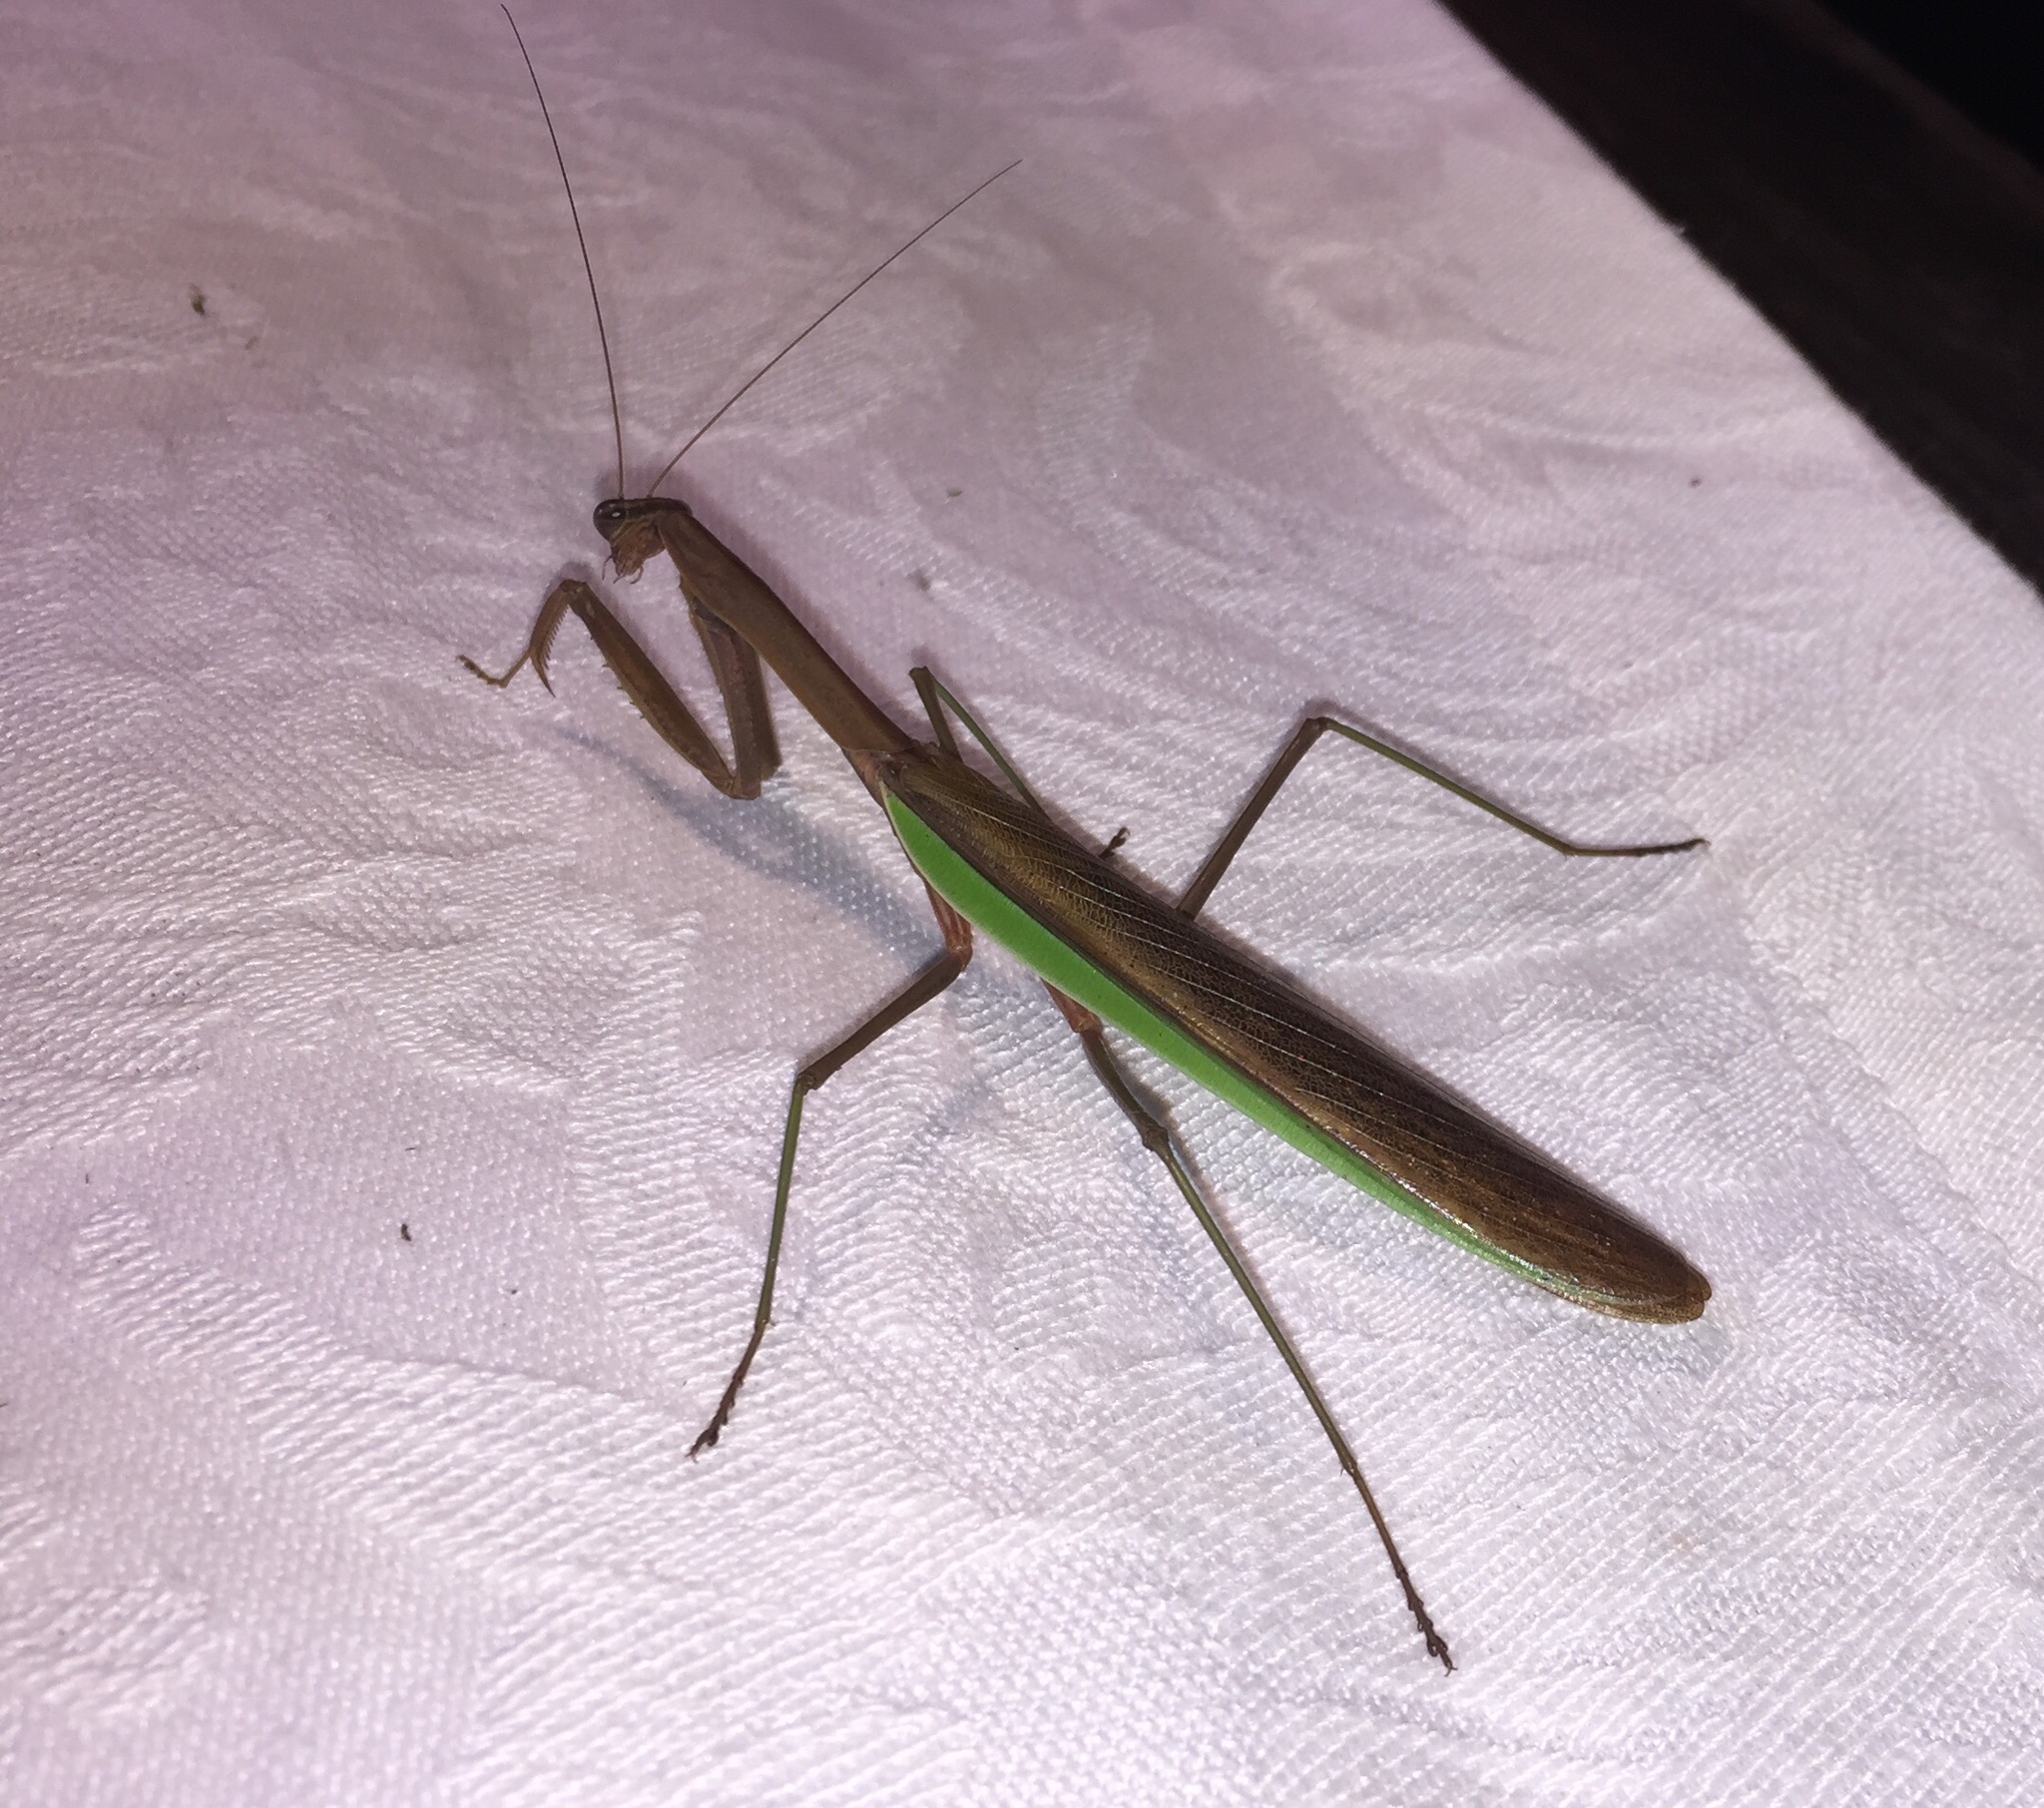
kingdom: Animalia
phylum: Arthropoda
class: Insecta
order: Mantodea
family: Mantidae
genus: Tenodera
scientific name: Tenodera sinensis
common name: Chinese mantis
